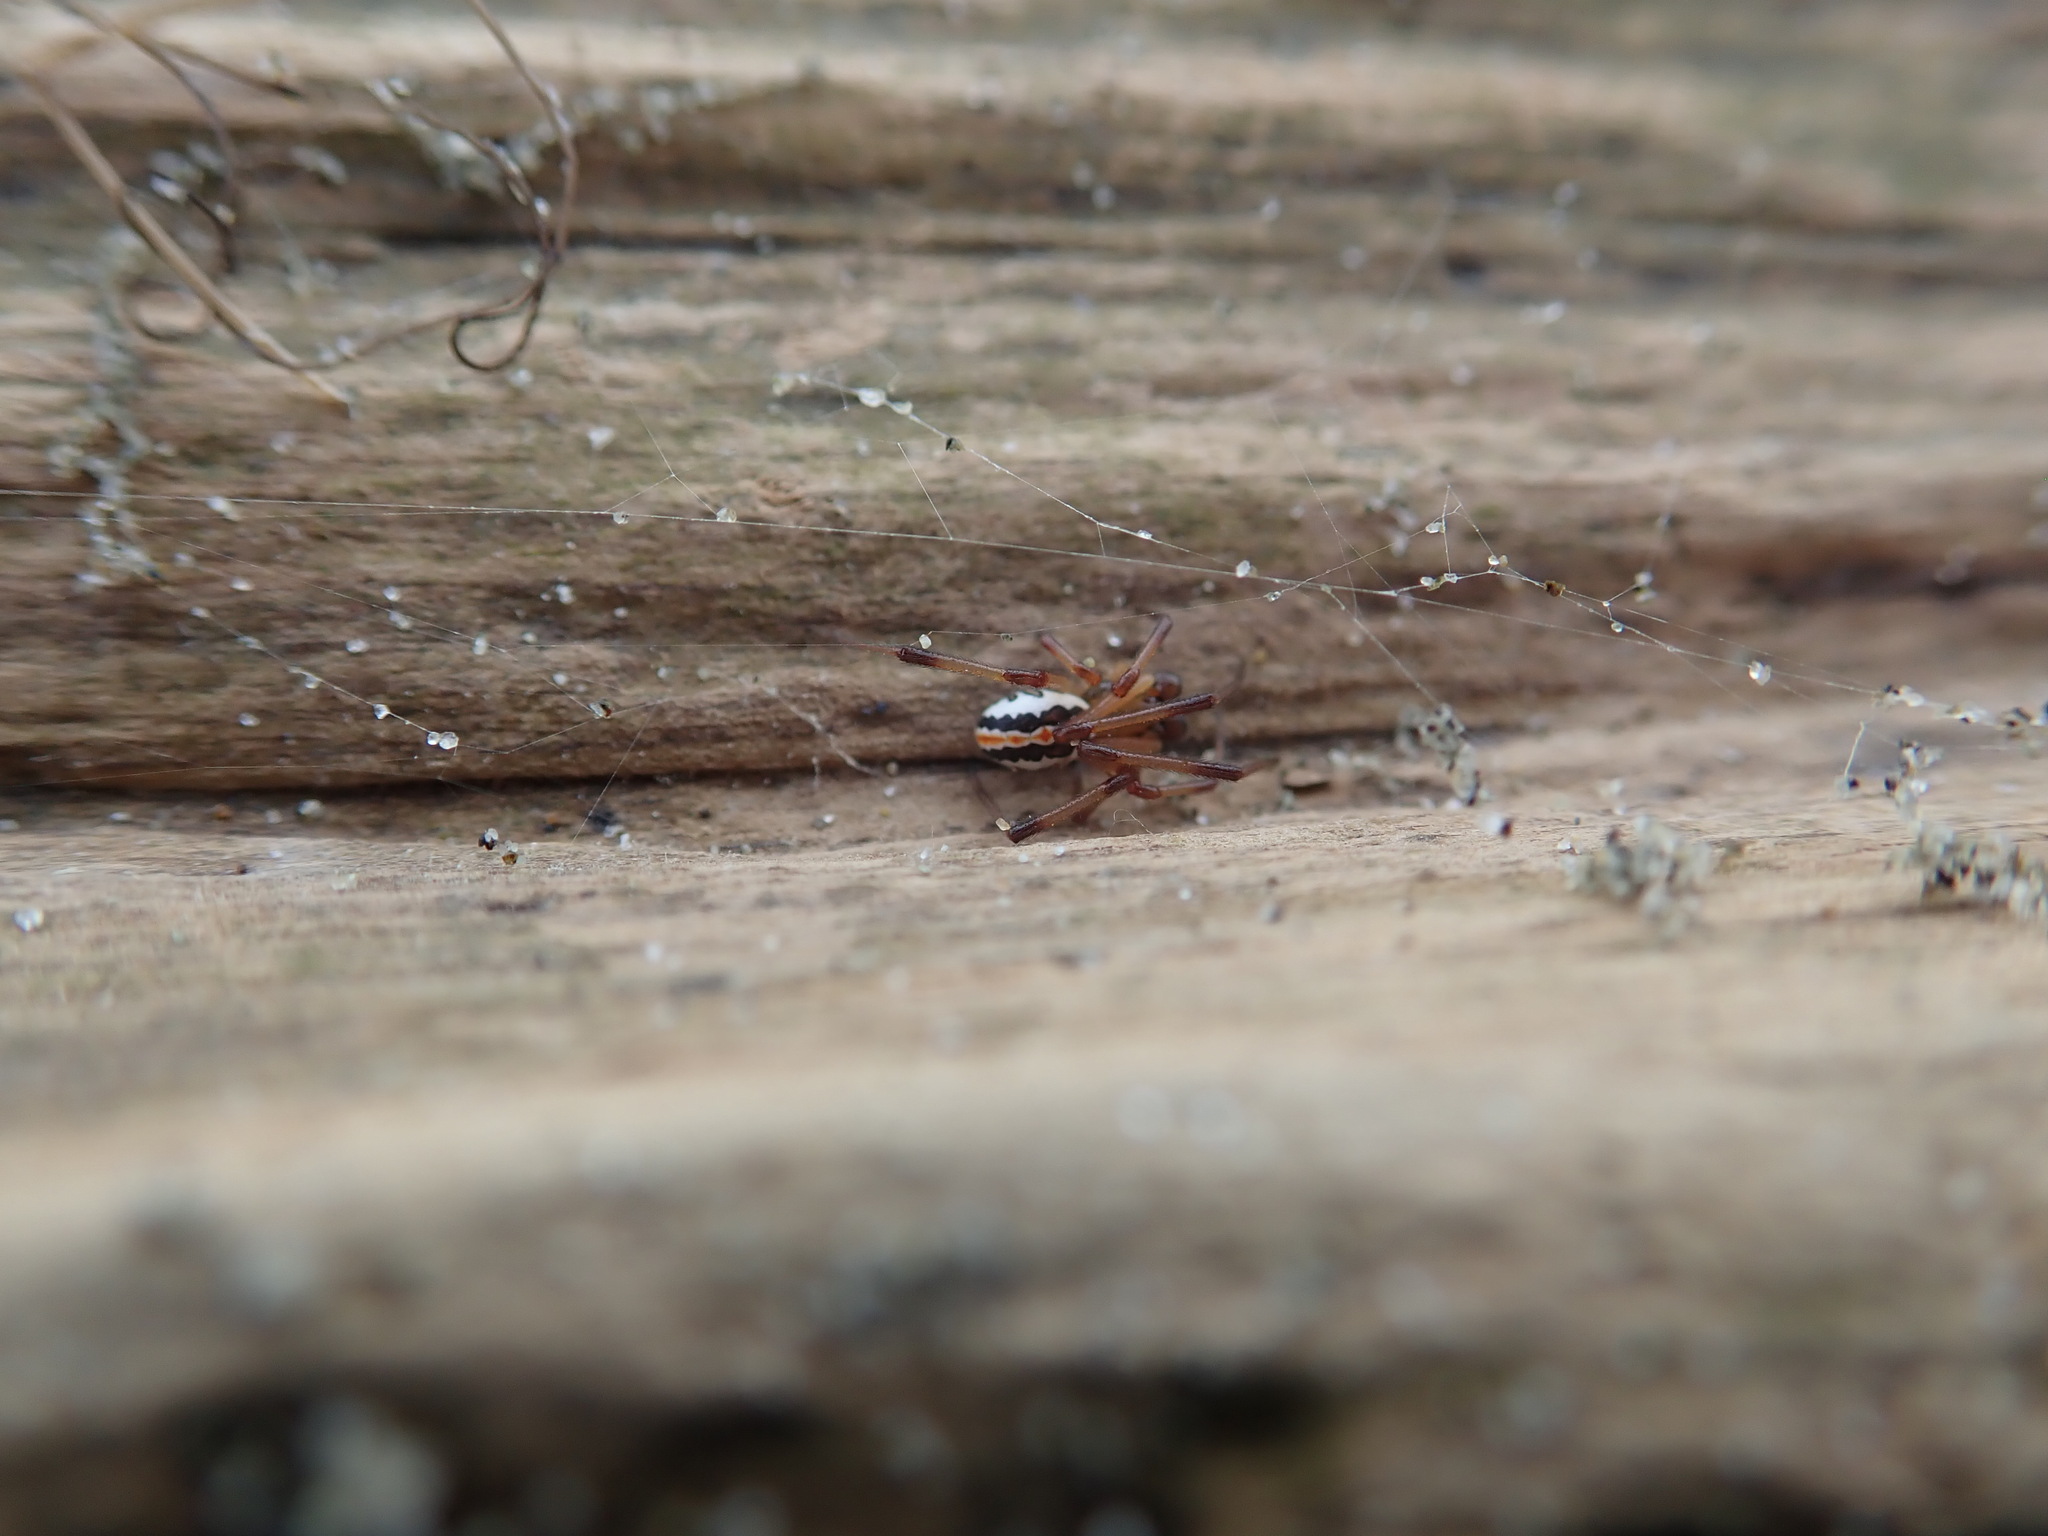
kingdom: Animalia
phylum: Arthropoda
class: Arachnida
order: Araneae
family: Theridiidae
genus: Latrodectus
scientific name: Latrodectus katipo
